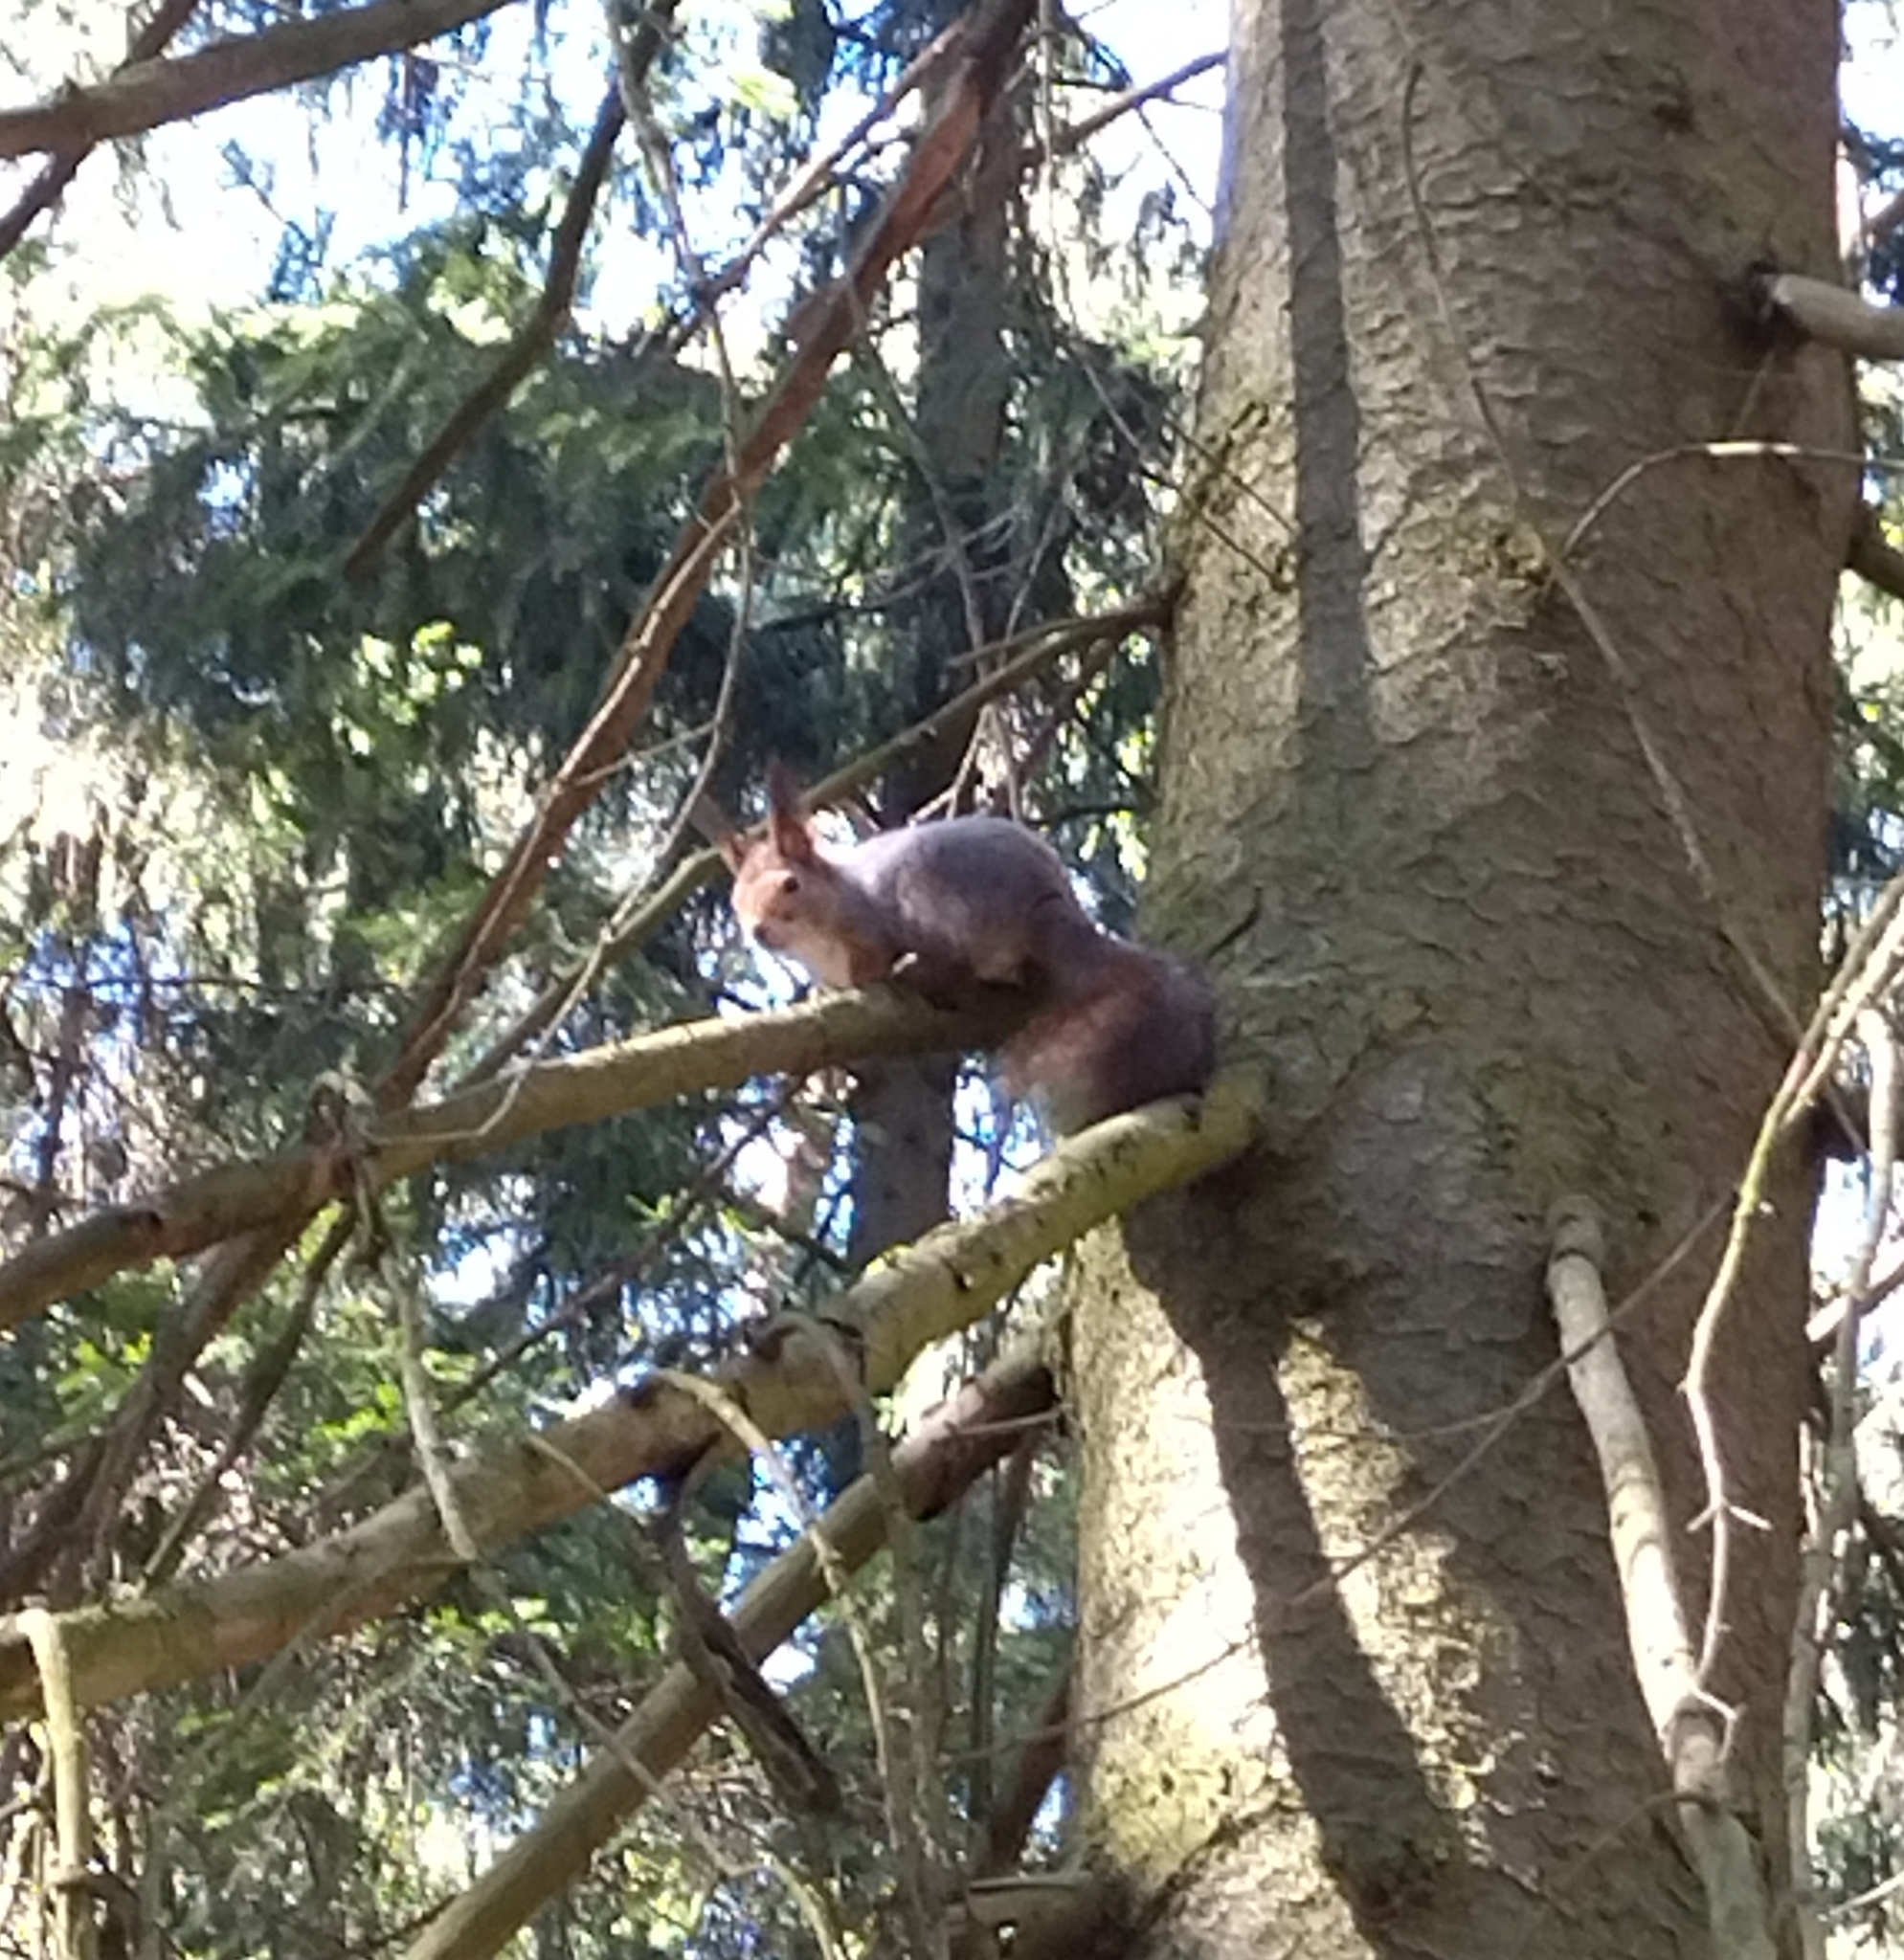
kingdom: Animalia
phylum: Chordata
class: Mammalia
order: Rodentia
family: Sciuridae
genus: Sciurus
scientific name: Sciurus vulgaris
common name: Eurasian red squirrel
